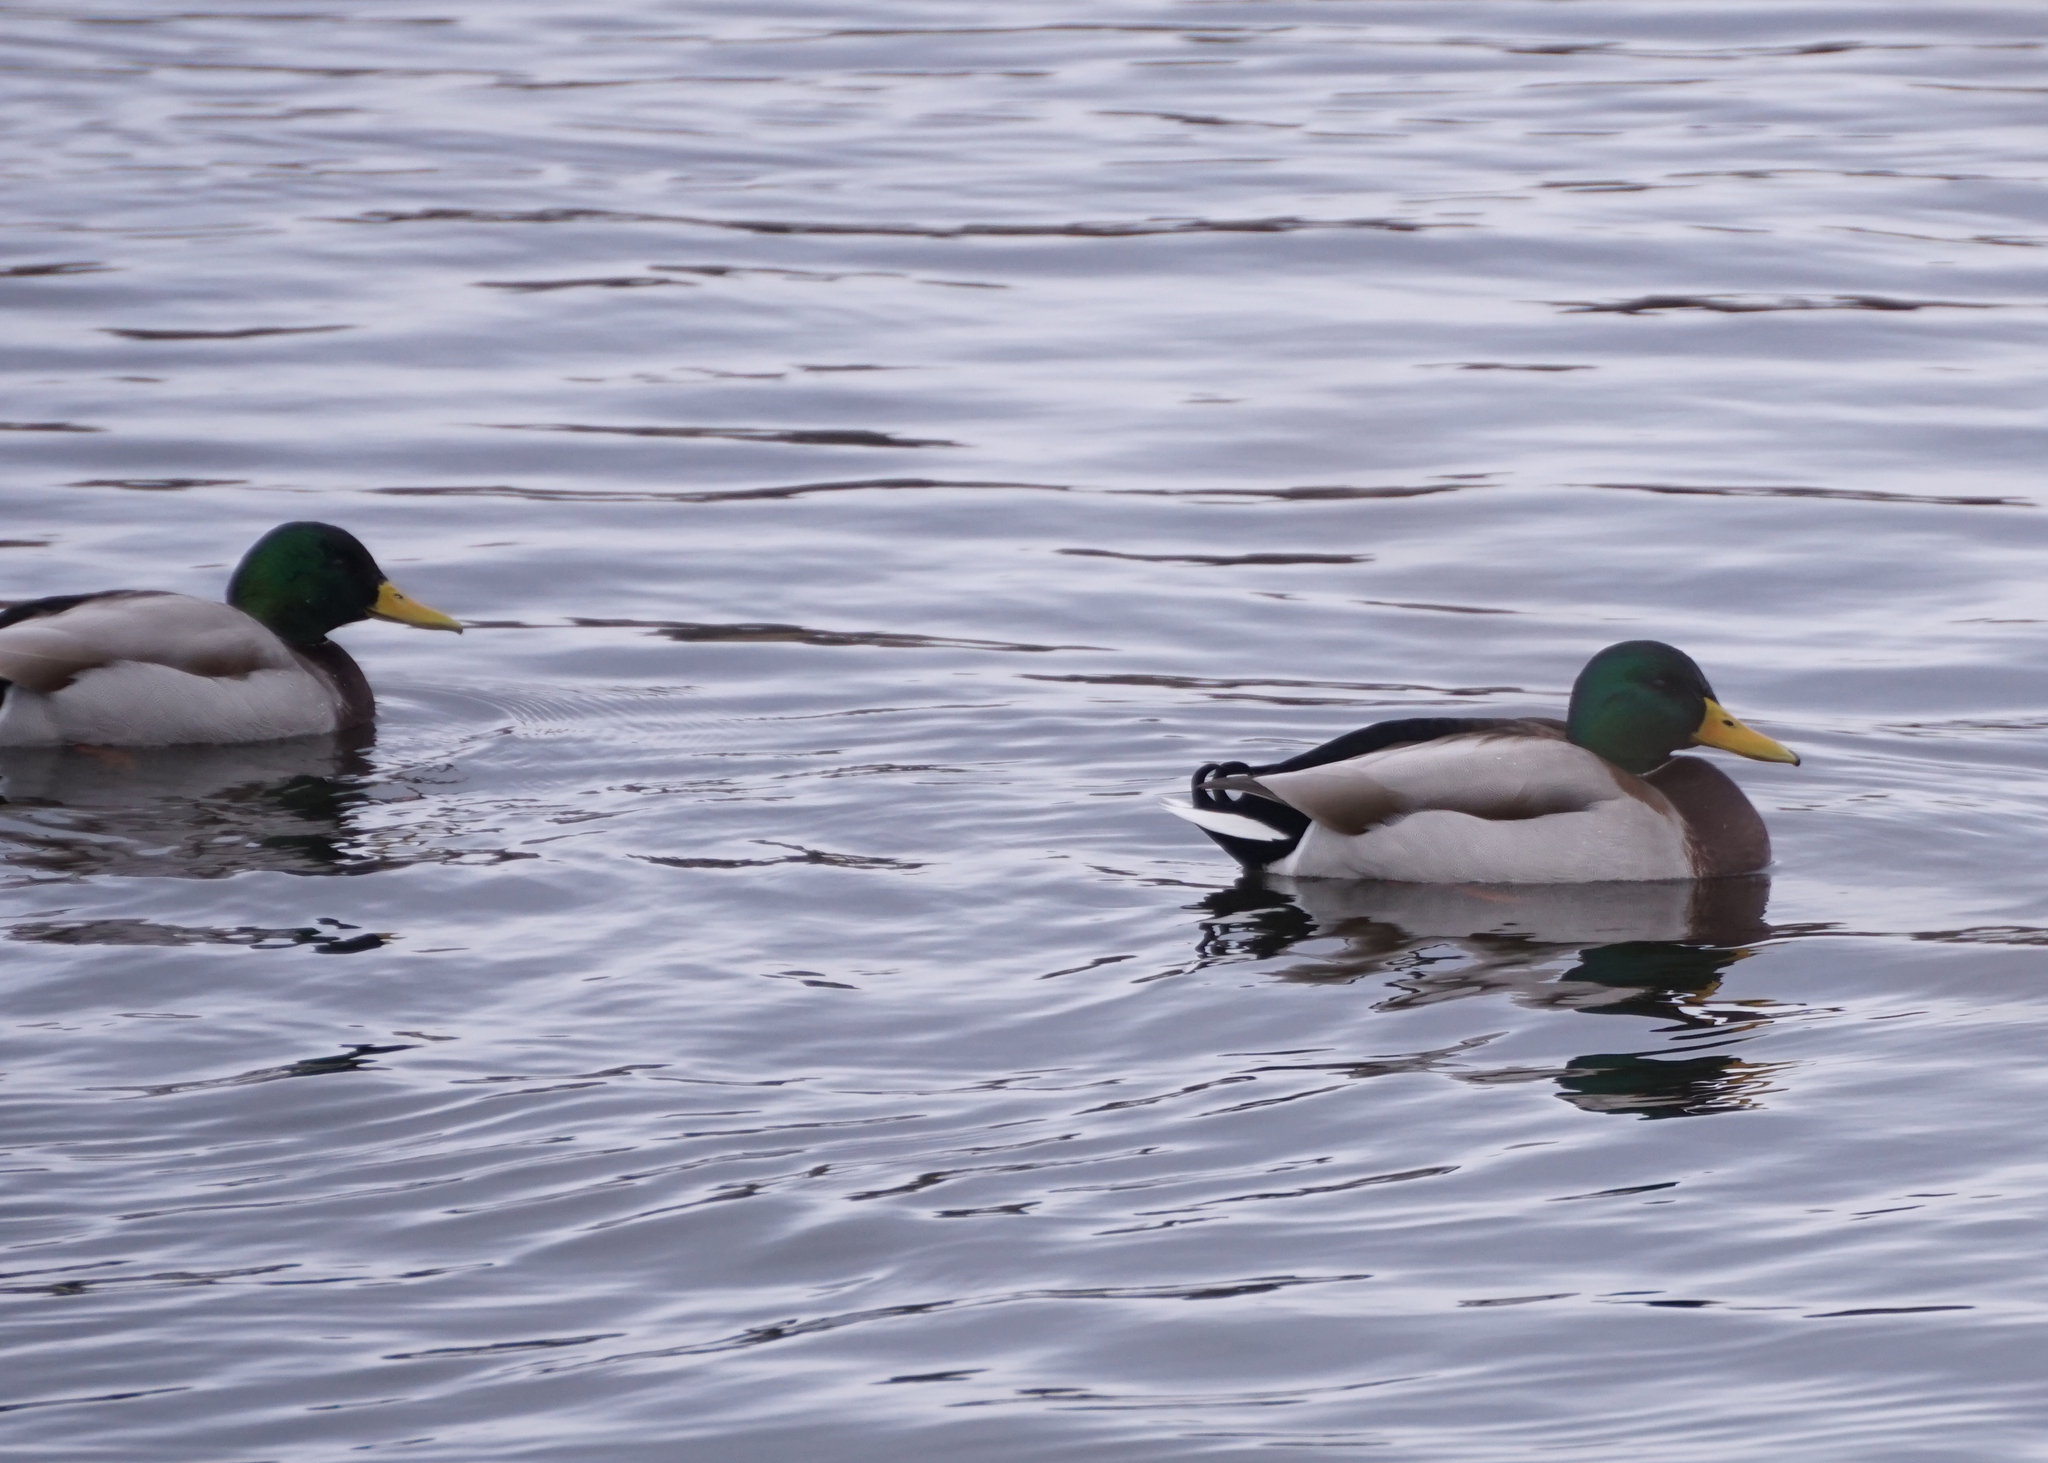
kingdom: Animalia
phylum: Chordata
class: Aves
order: Anseriformes
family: Anatidae
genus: Anas
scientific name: Anas platyrhynchos
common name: Mallard
